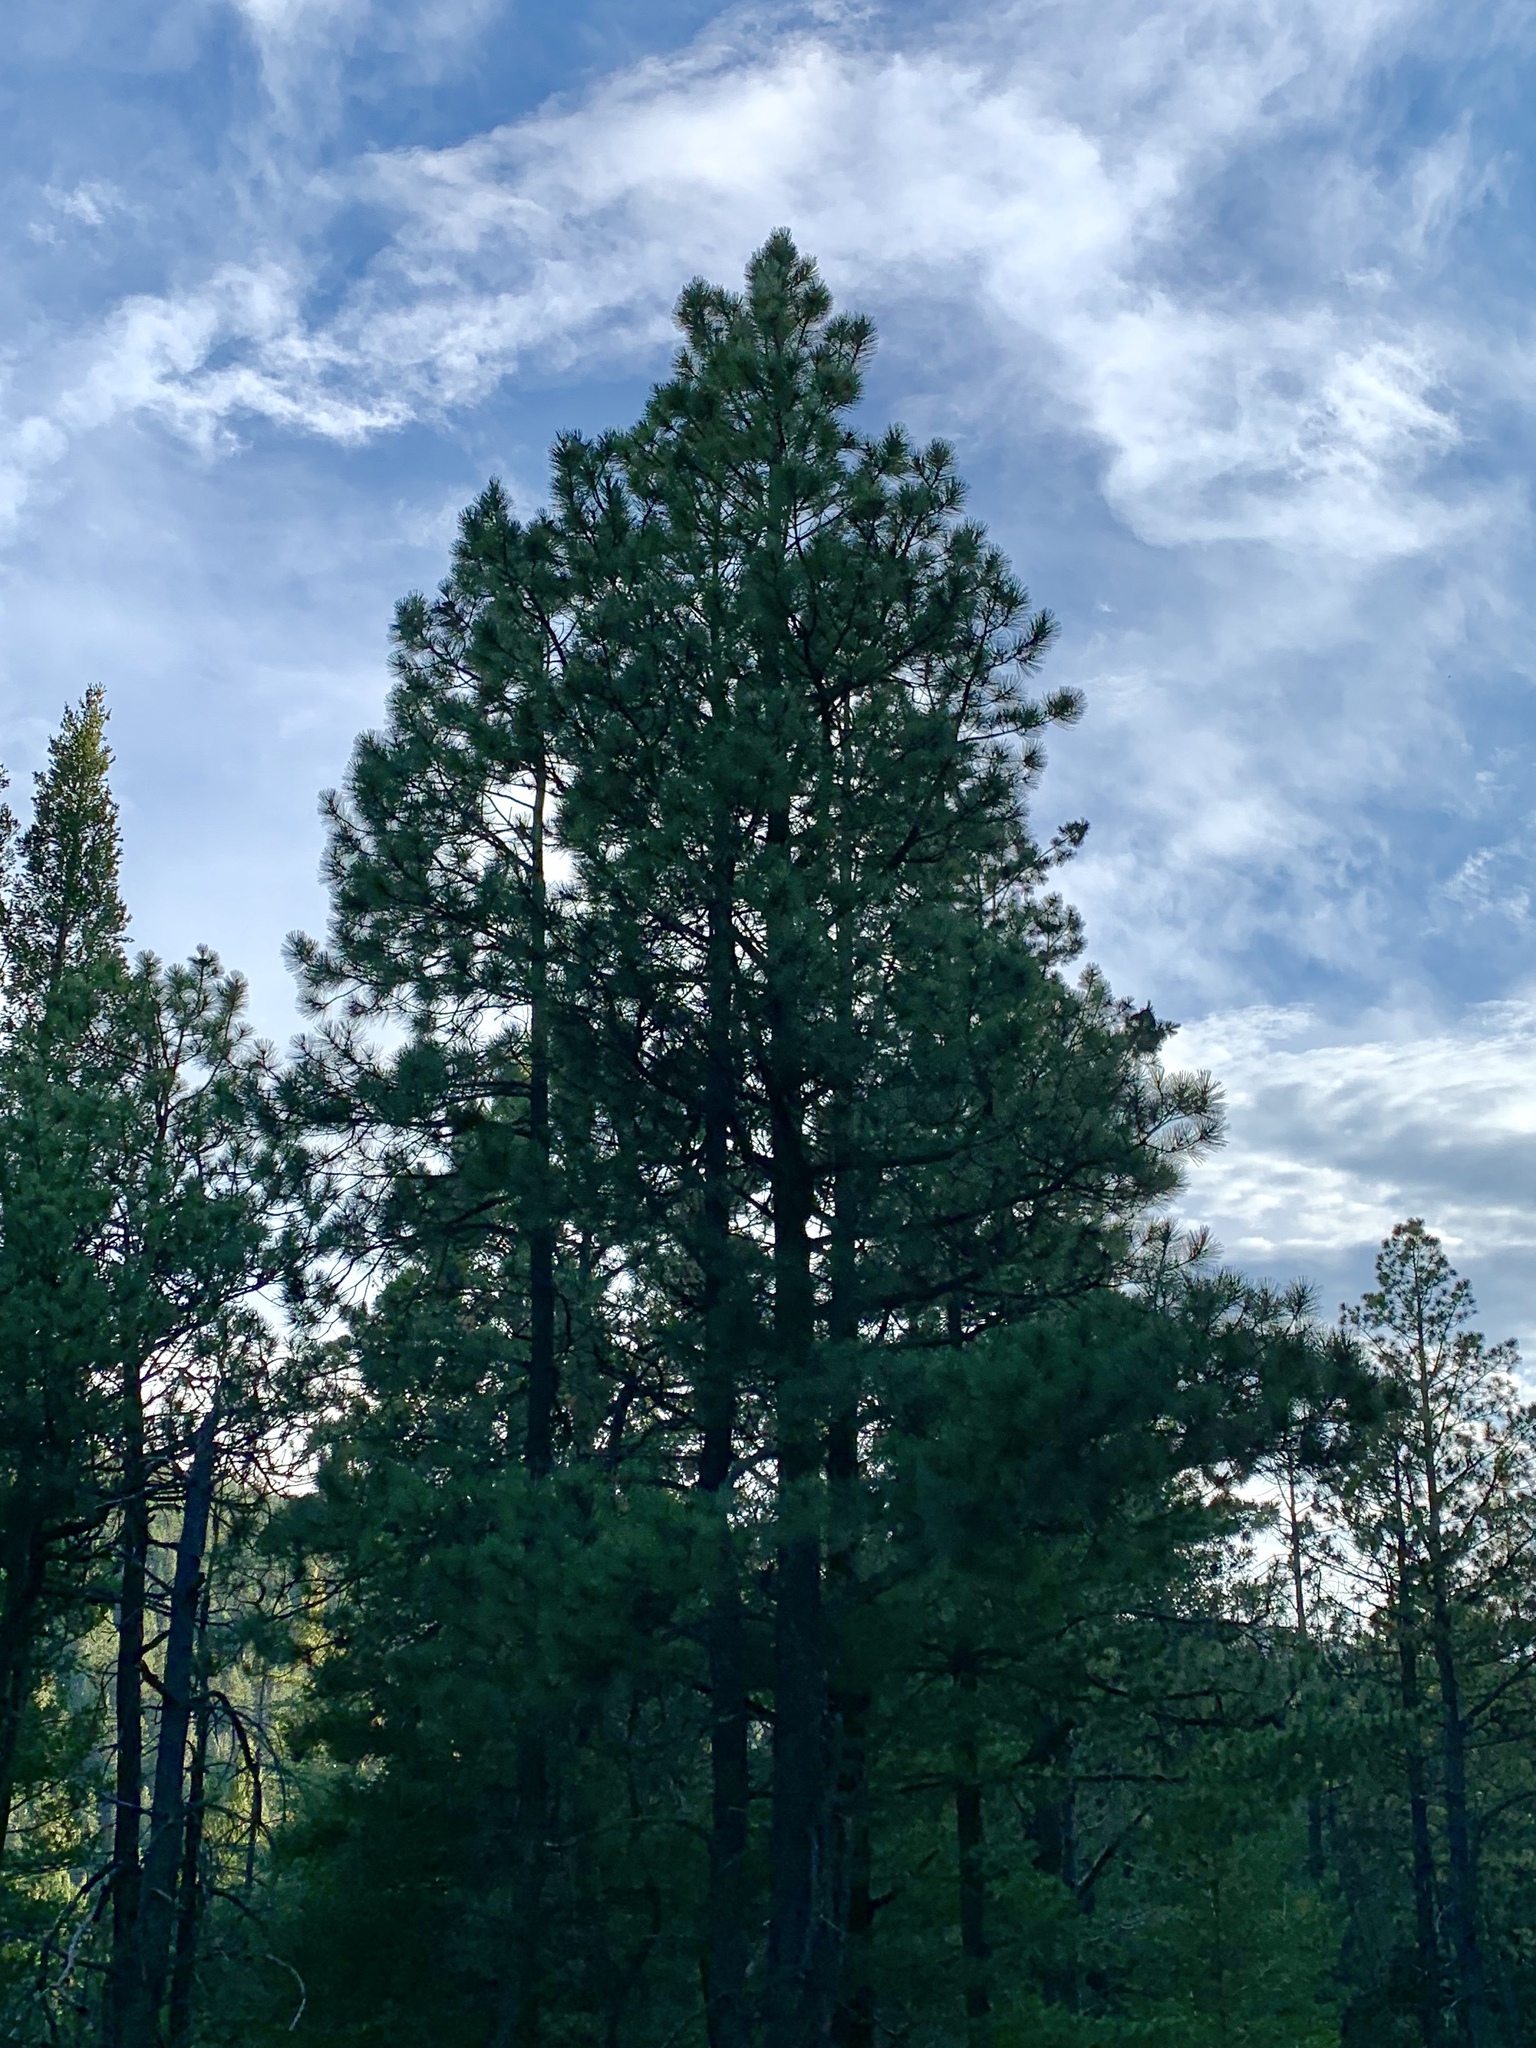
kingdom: Plantae
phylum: Tracheophyta
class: Pinopsida
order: Pinales
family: Pinaceae
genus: Pinus
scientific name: Pinus ponderosa
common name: Western yellow-pine
